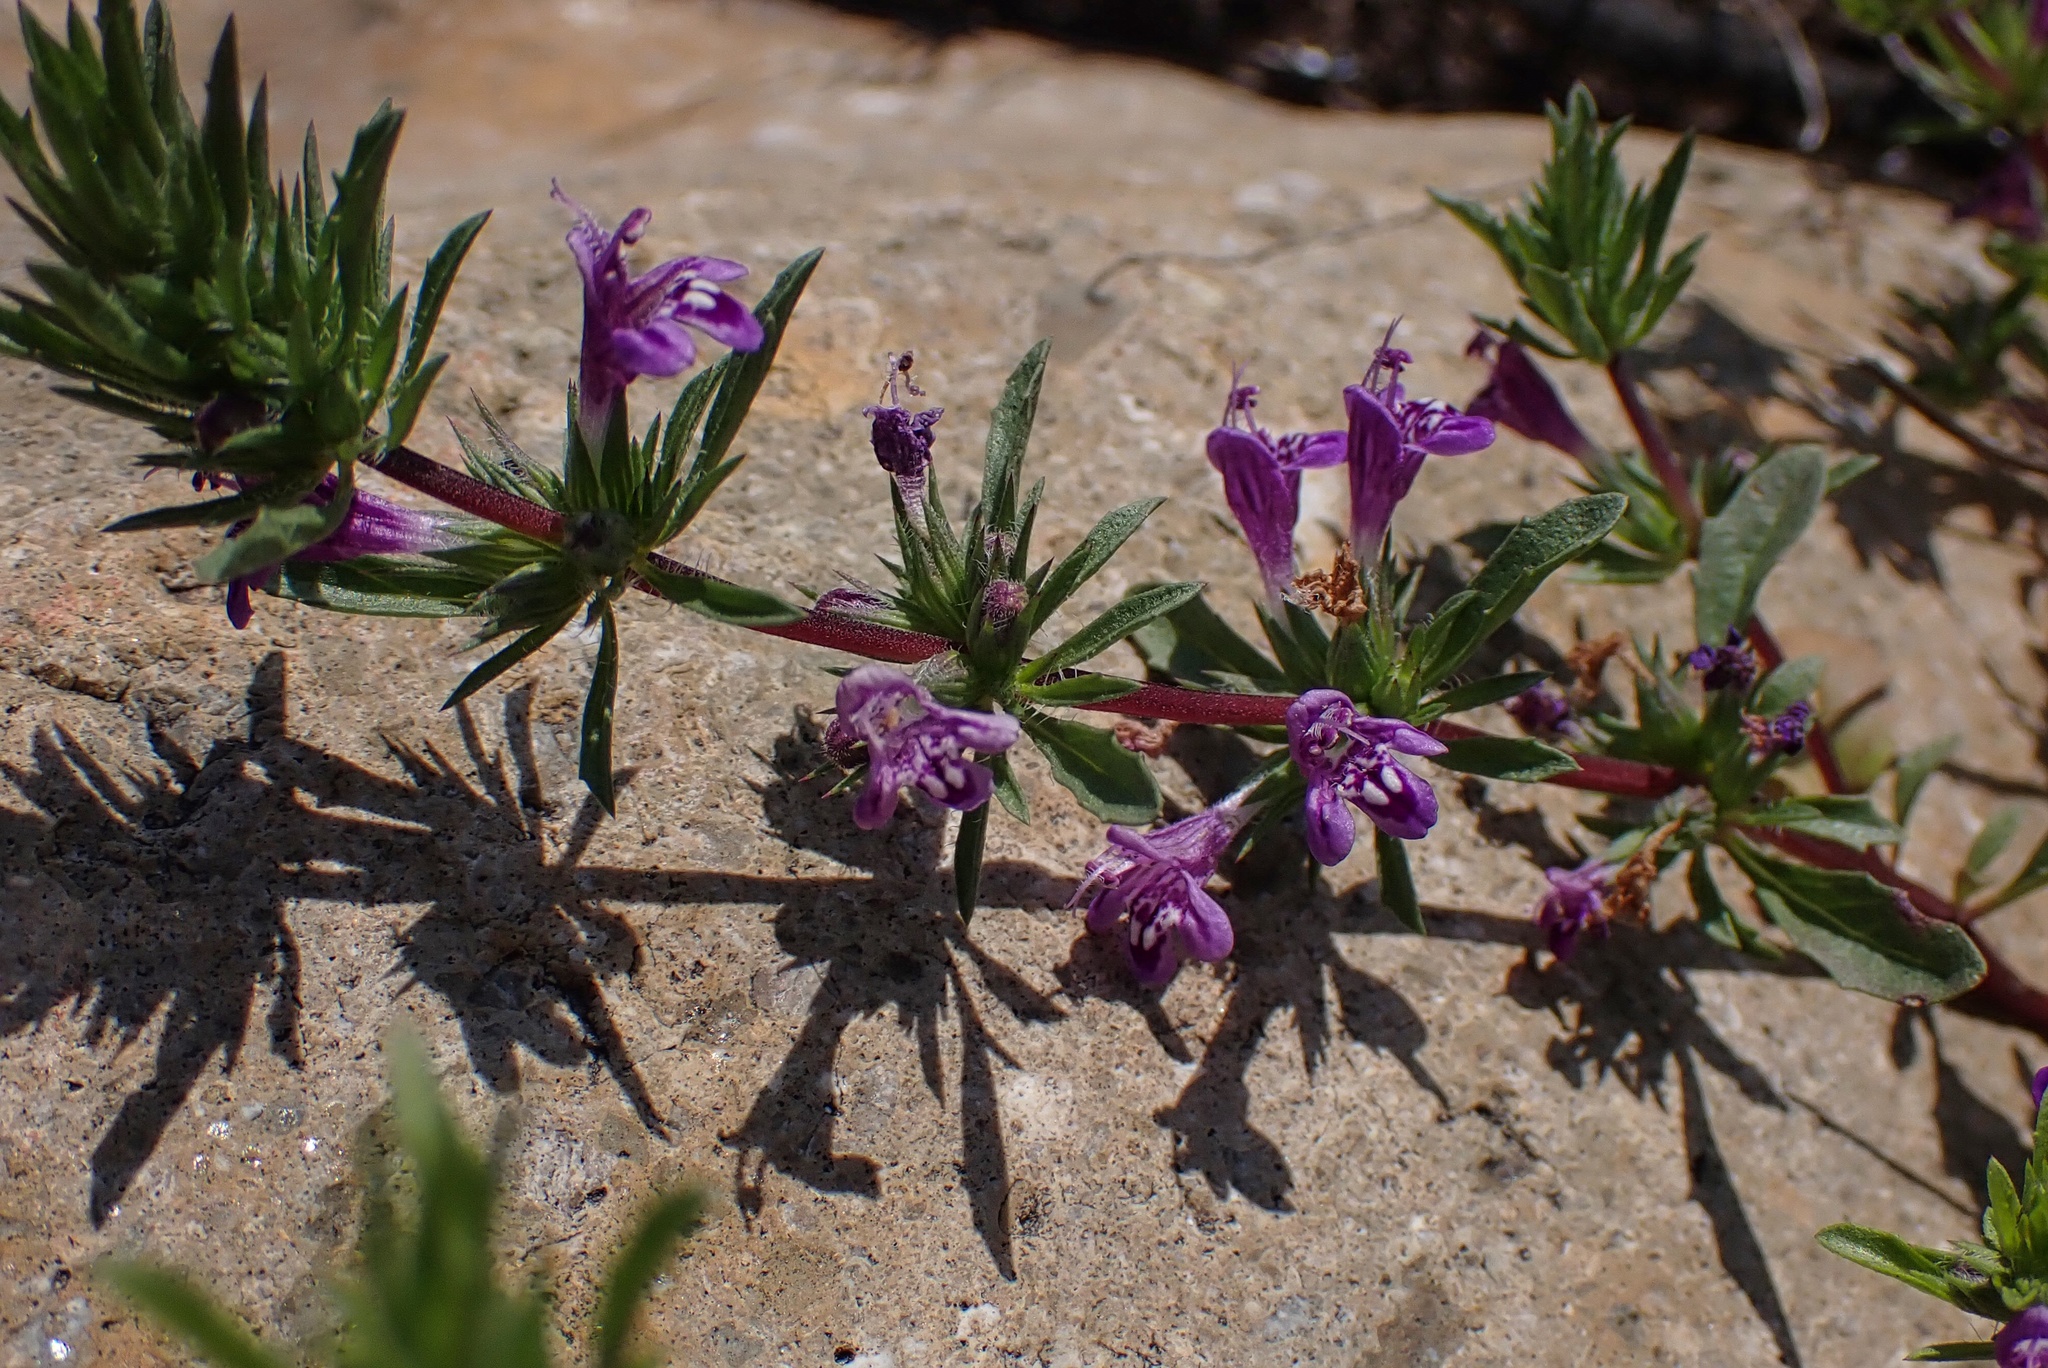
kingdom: Plantae
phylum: Tracheophyta
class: Magnoliopsida
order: Lamiales
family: Lamiaceae
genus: Pogogyne
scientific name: Pogogyne nudiuscula
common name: Otay mesa-mint
